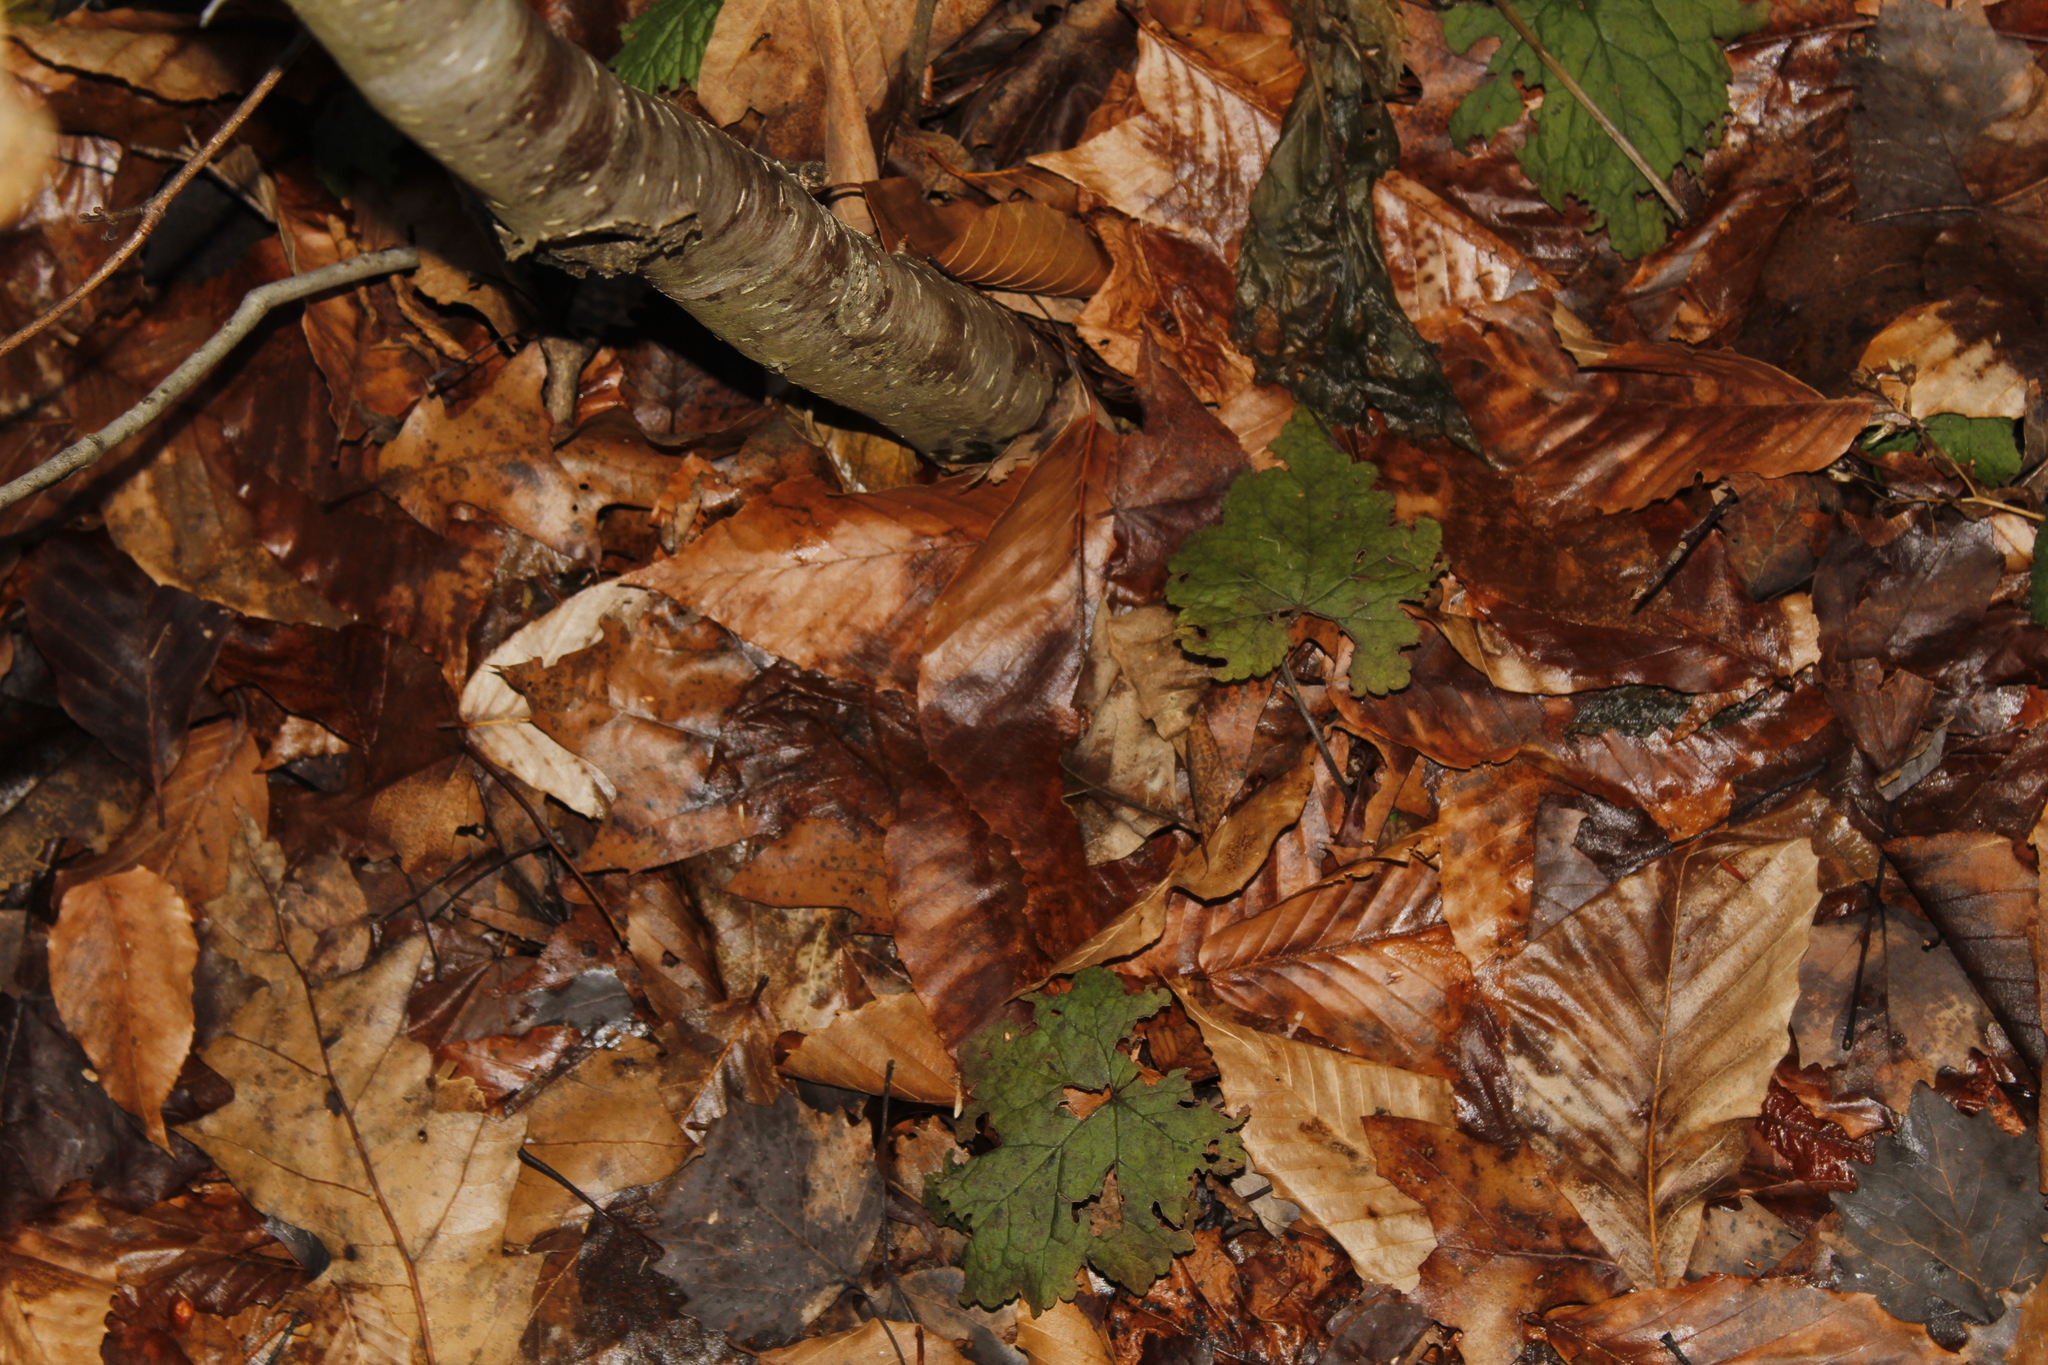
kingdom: Plantae
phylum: Tracheophyta
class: Magnoliopsida
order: Saxifragales
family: Saxifragaceae
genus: Tiarella
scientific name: Tiarella stolonifera
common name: Stoloniferous foamflower
